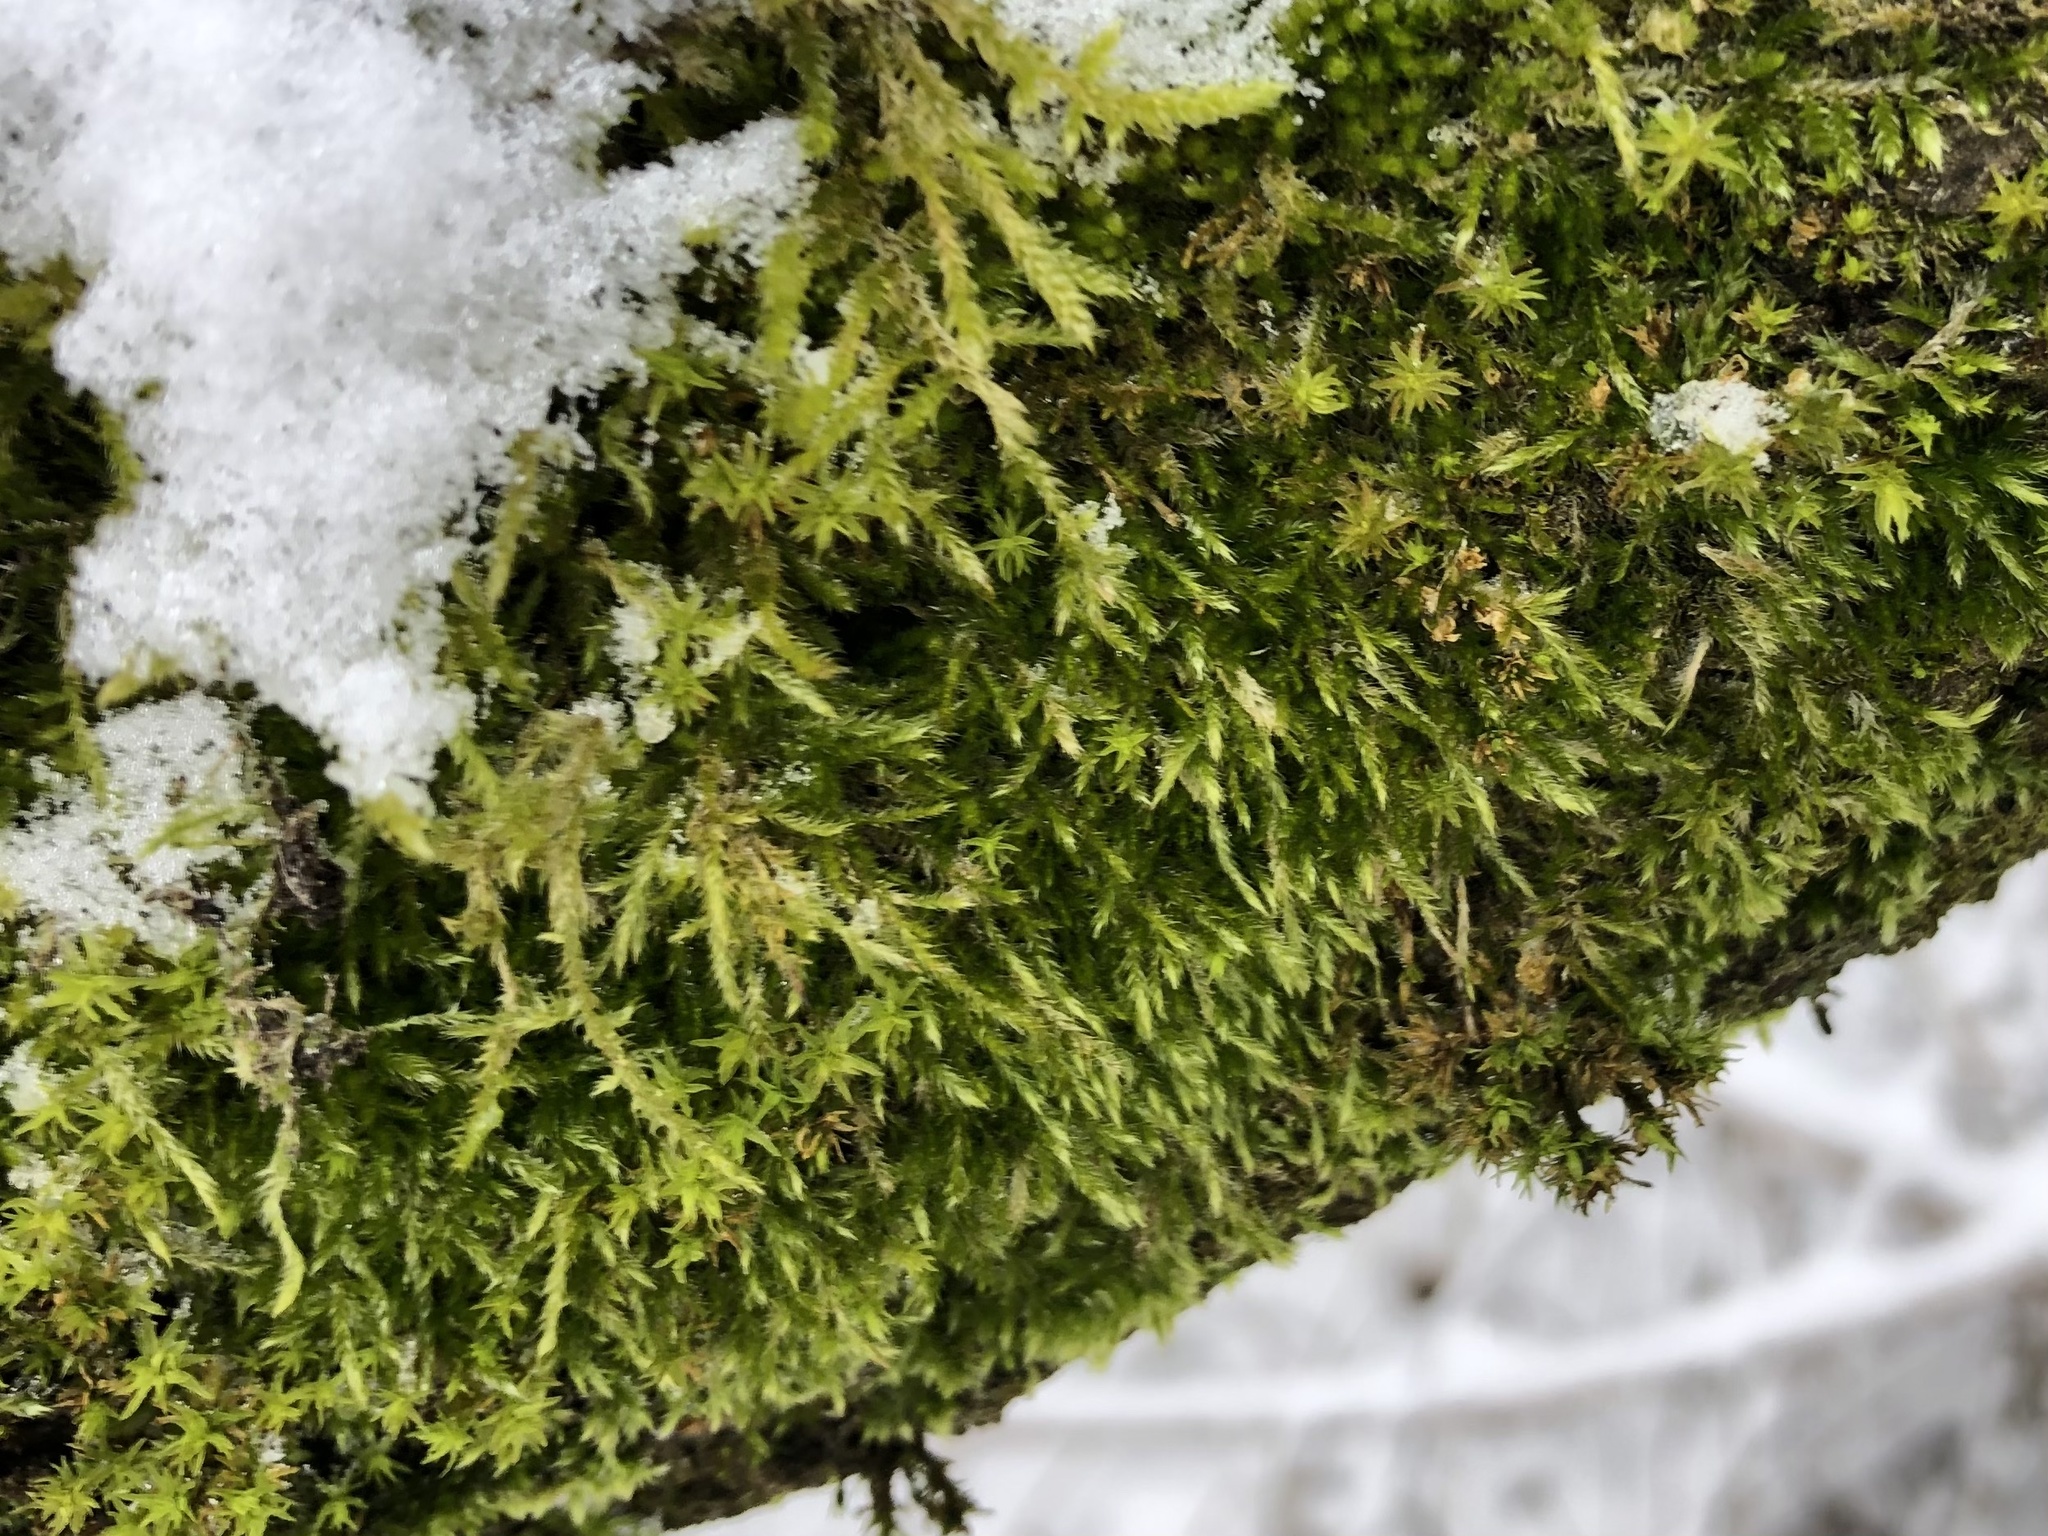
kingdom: Plantae
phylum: Bryophyta
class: Bryopsida
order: Hypnales
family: Hypnaceae
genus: Hypnum
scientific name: Hypnum cupressiforme
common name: Cypress-leaved plait-moss
